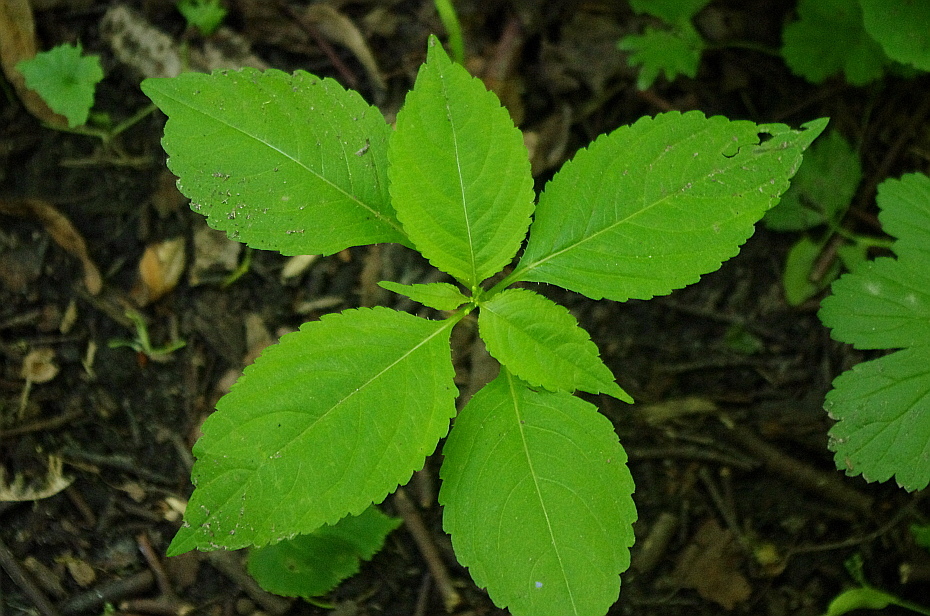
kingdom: Plantae
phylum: Tracheophyta
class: Magnoliopsida
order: Ericales
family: Balsaminaceae
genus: Impatiens
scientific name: Impatiens parviflora
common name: Small balsam
